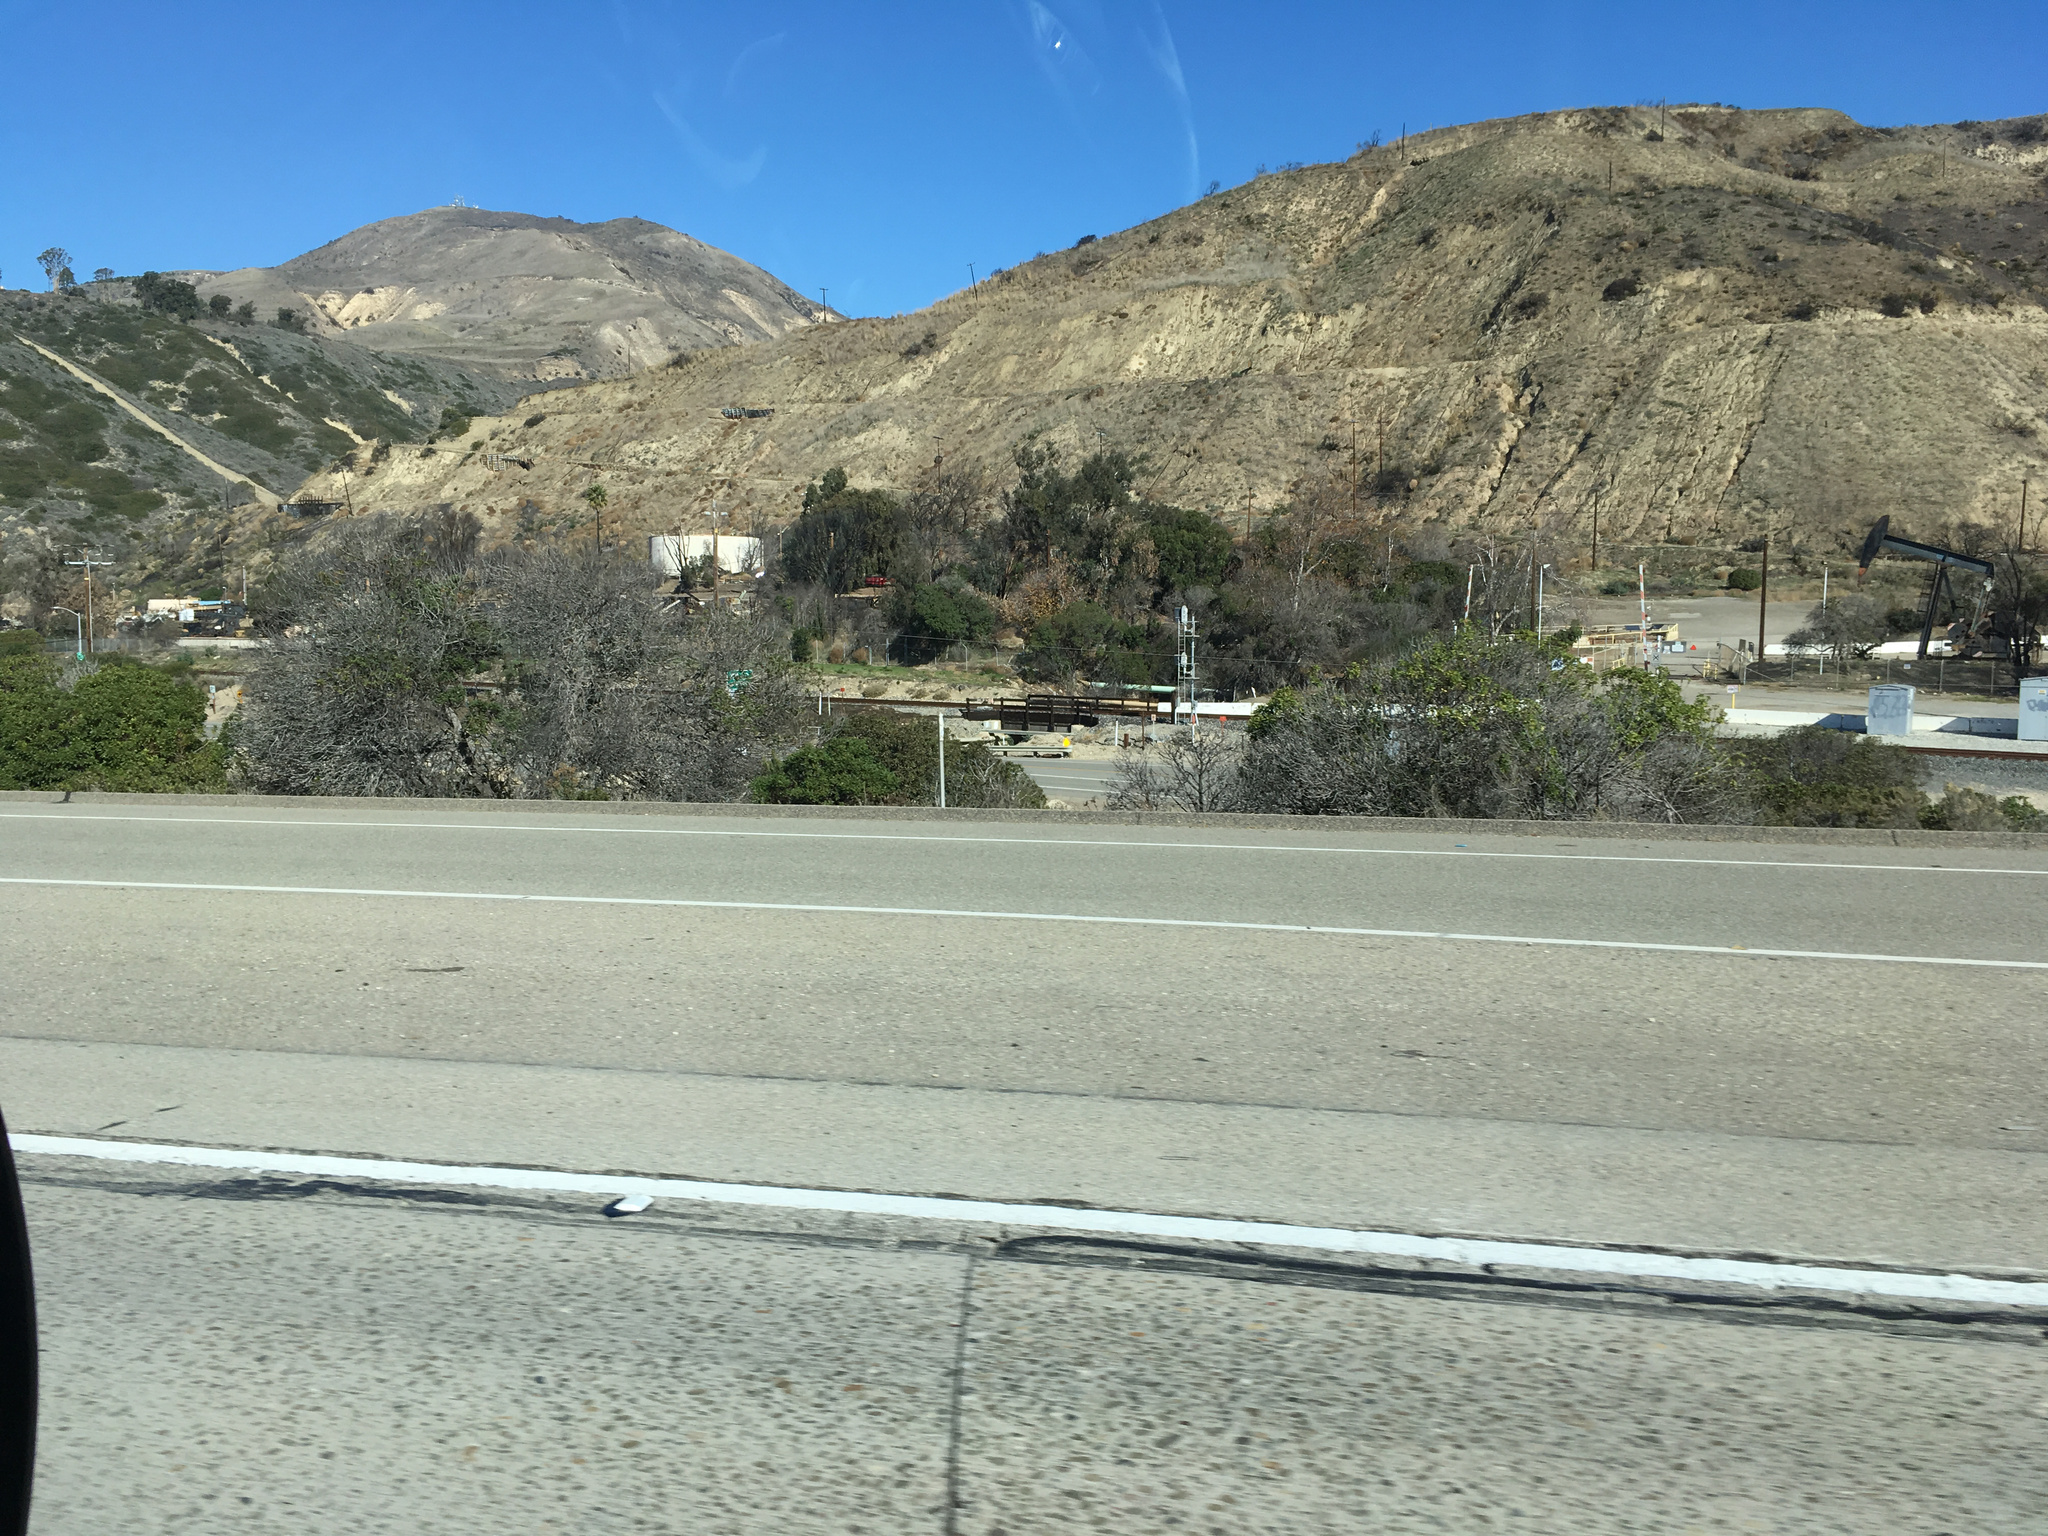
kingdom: Plantae
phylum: Tracheophyta
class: Magnoliopsida
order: Lamiales
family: Scrophulariaceae
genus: Myoporum
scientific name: Myoporum laetum
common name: Ngaio tree
